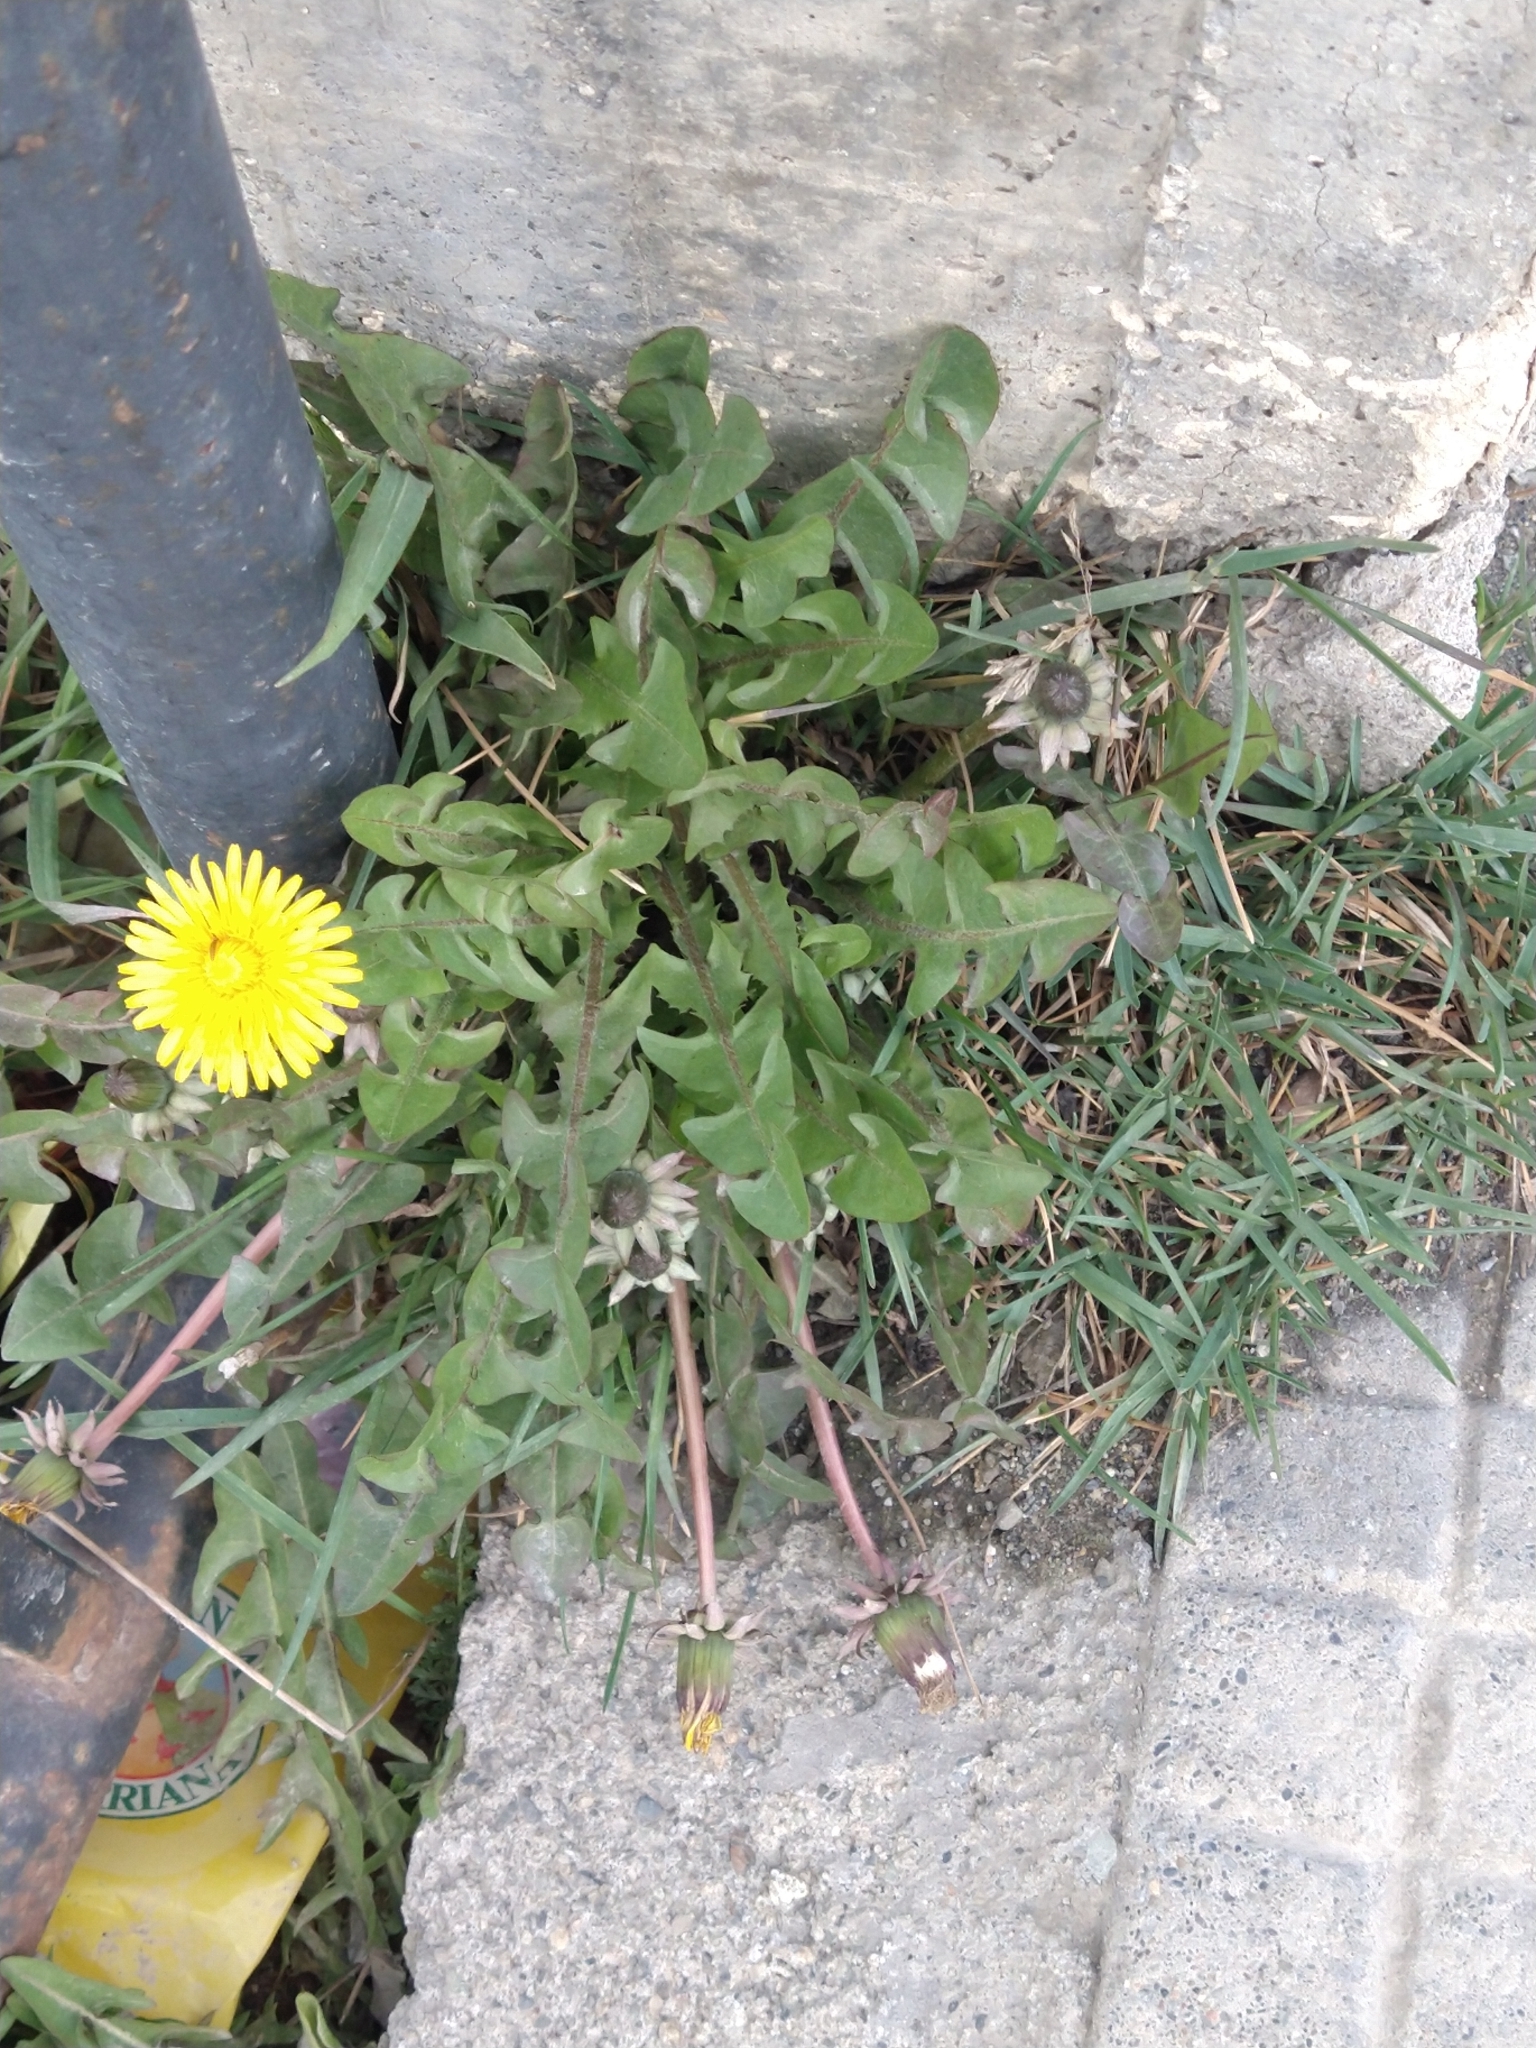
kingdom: Plantae
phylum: Tracheophyta
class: Magnoliopsida
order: Asterales
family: Asteraceae
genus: Taraxacum
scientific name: Taraxacum officinale
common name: Common dandelion
